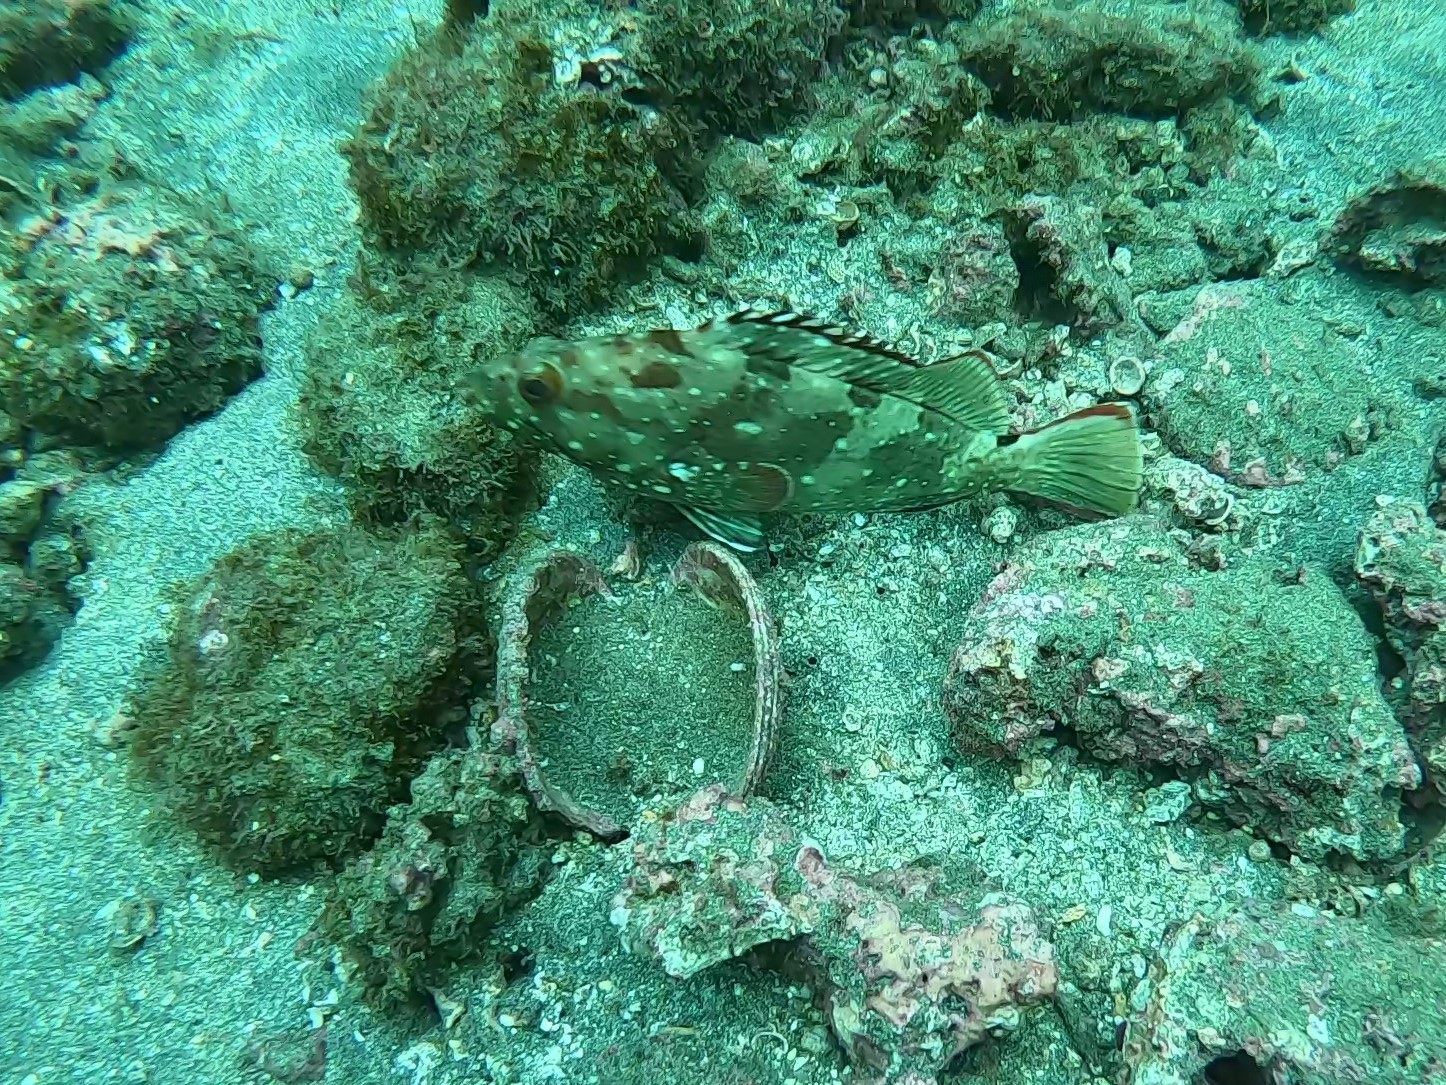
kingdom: Animalia
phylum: Chordata
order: Perciformes
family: Serranidae
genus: Epinephelus
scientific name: Epinephelus labriformis
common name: Flag cabrilla
